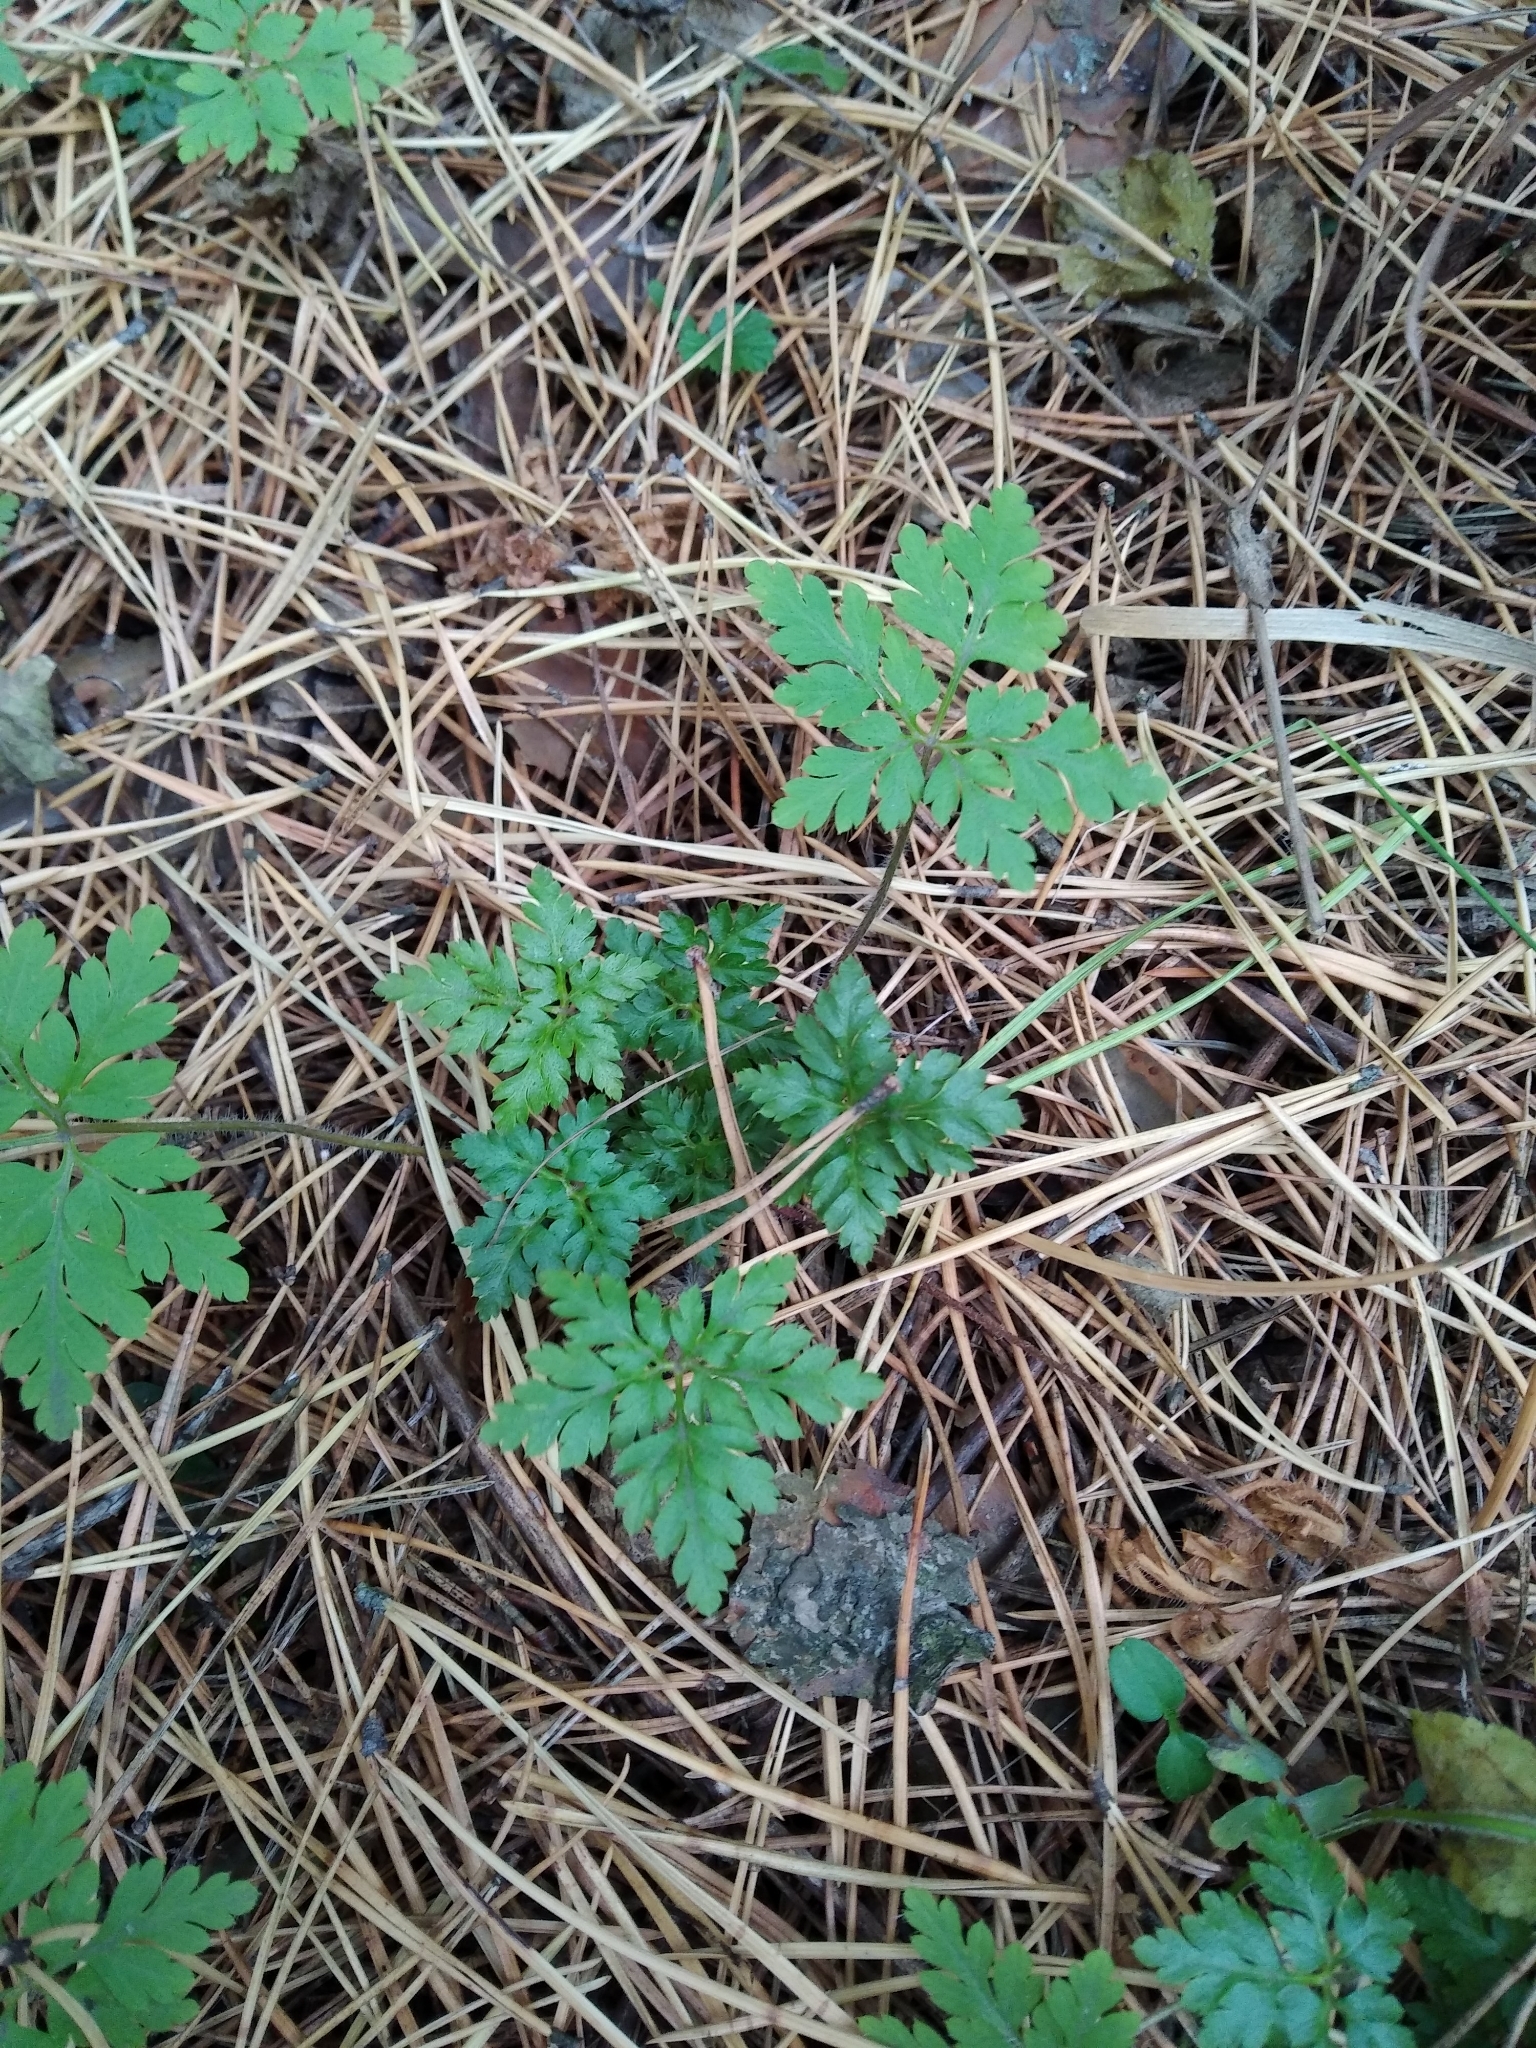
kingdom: Plantae
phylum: Tracheophyta
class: Magnoliopsida
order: Geraniales
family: Geraniaceae
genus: Geranium
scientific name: Geranium robertianum
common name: Herb-robert
